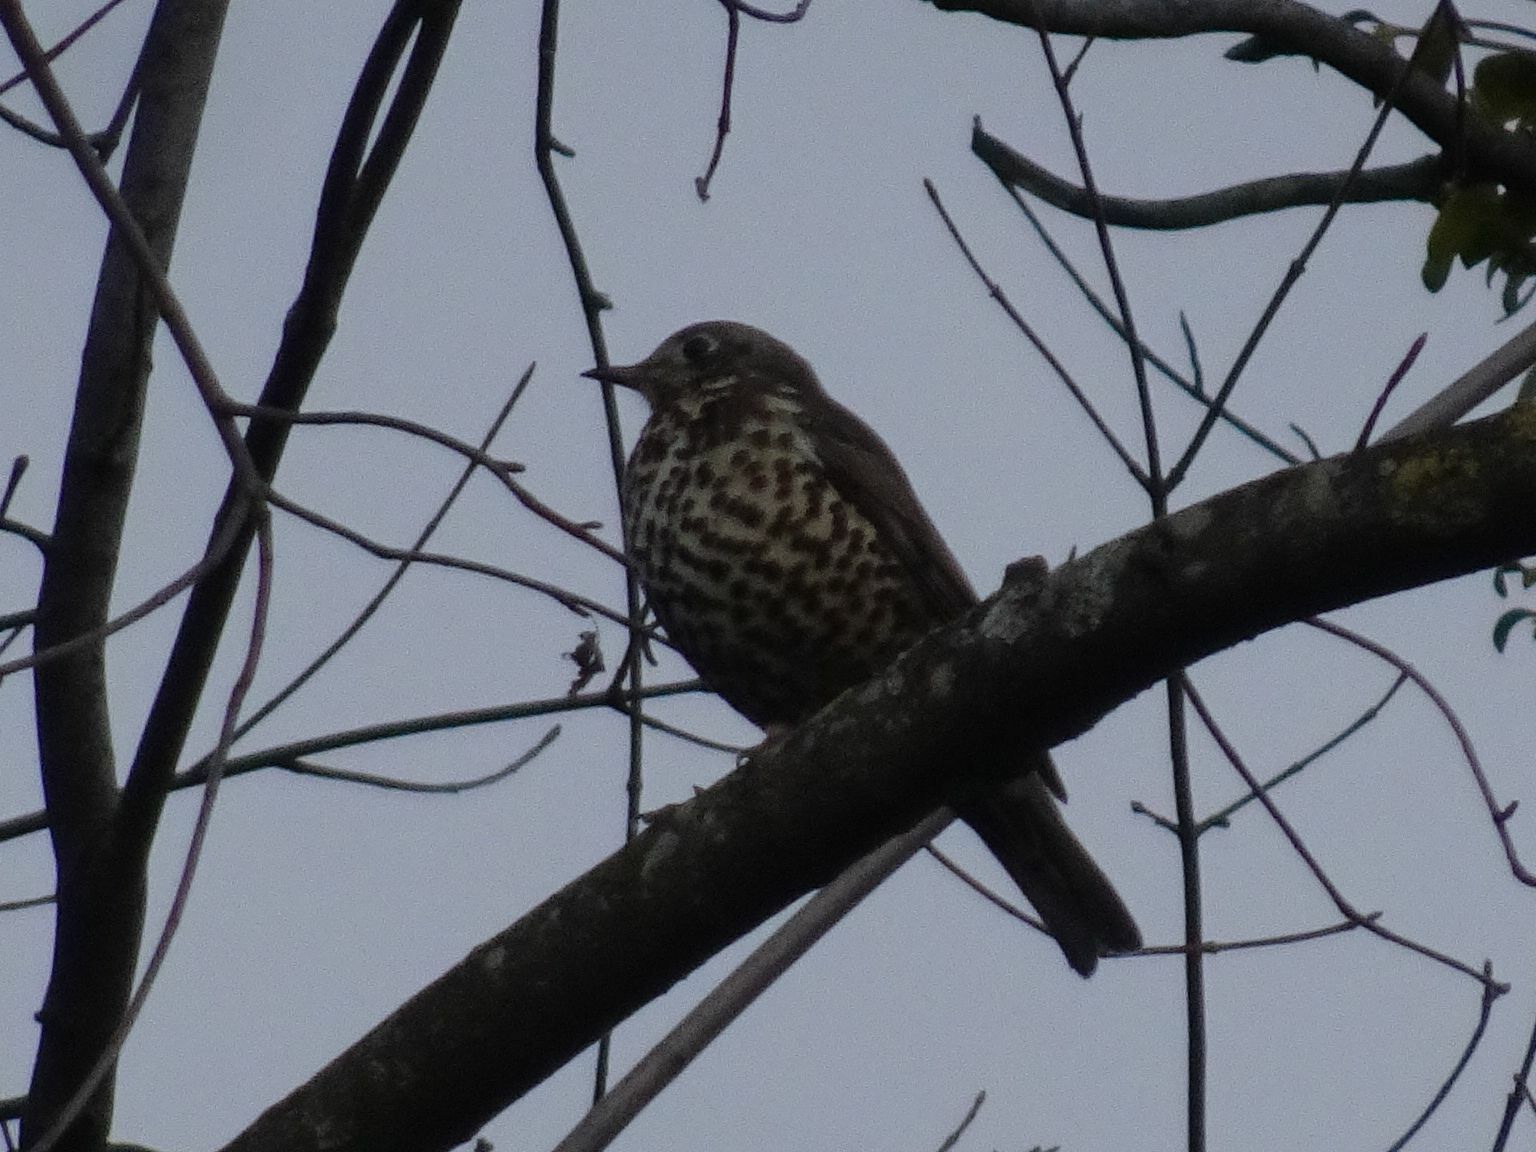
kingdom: Animalia
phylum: Chordata
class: Aves
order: Passeriformes
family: Turdidae
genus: Turdus
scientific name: Turdus viscivorus
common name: Mistle thrush
